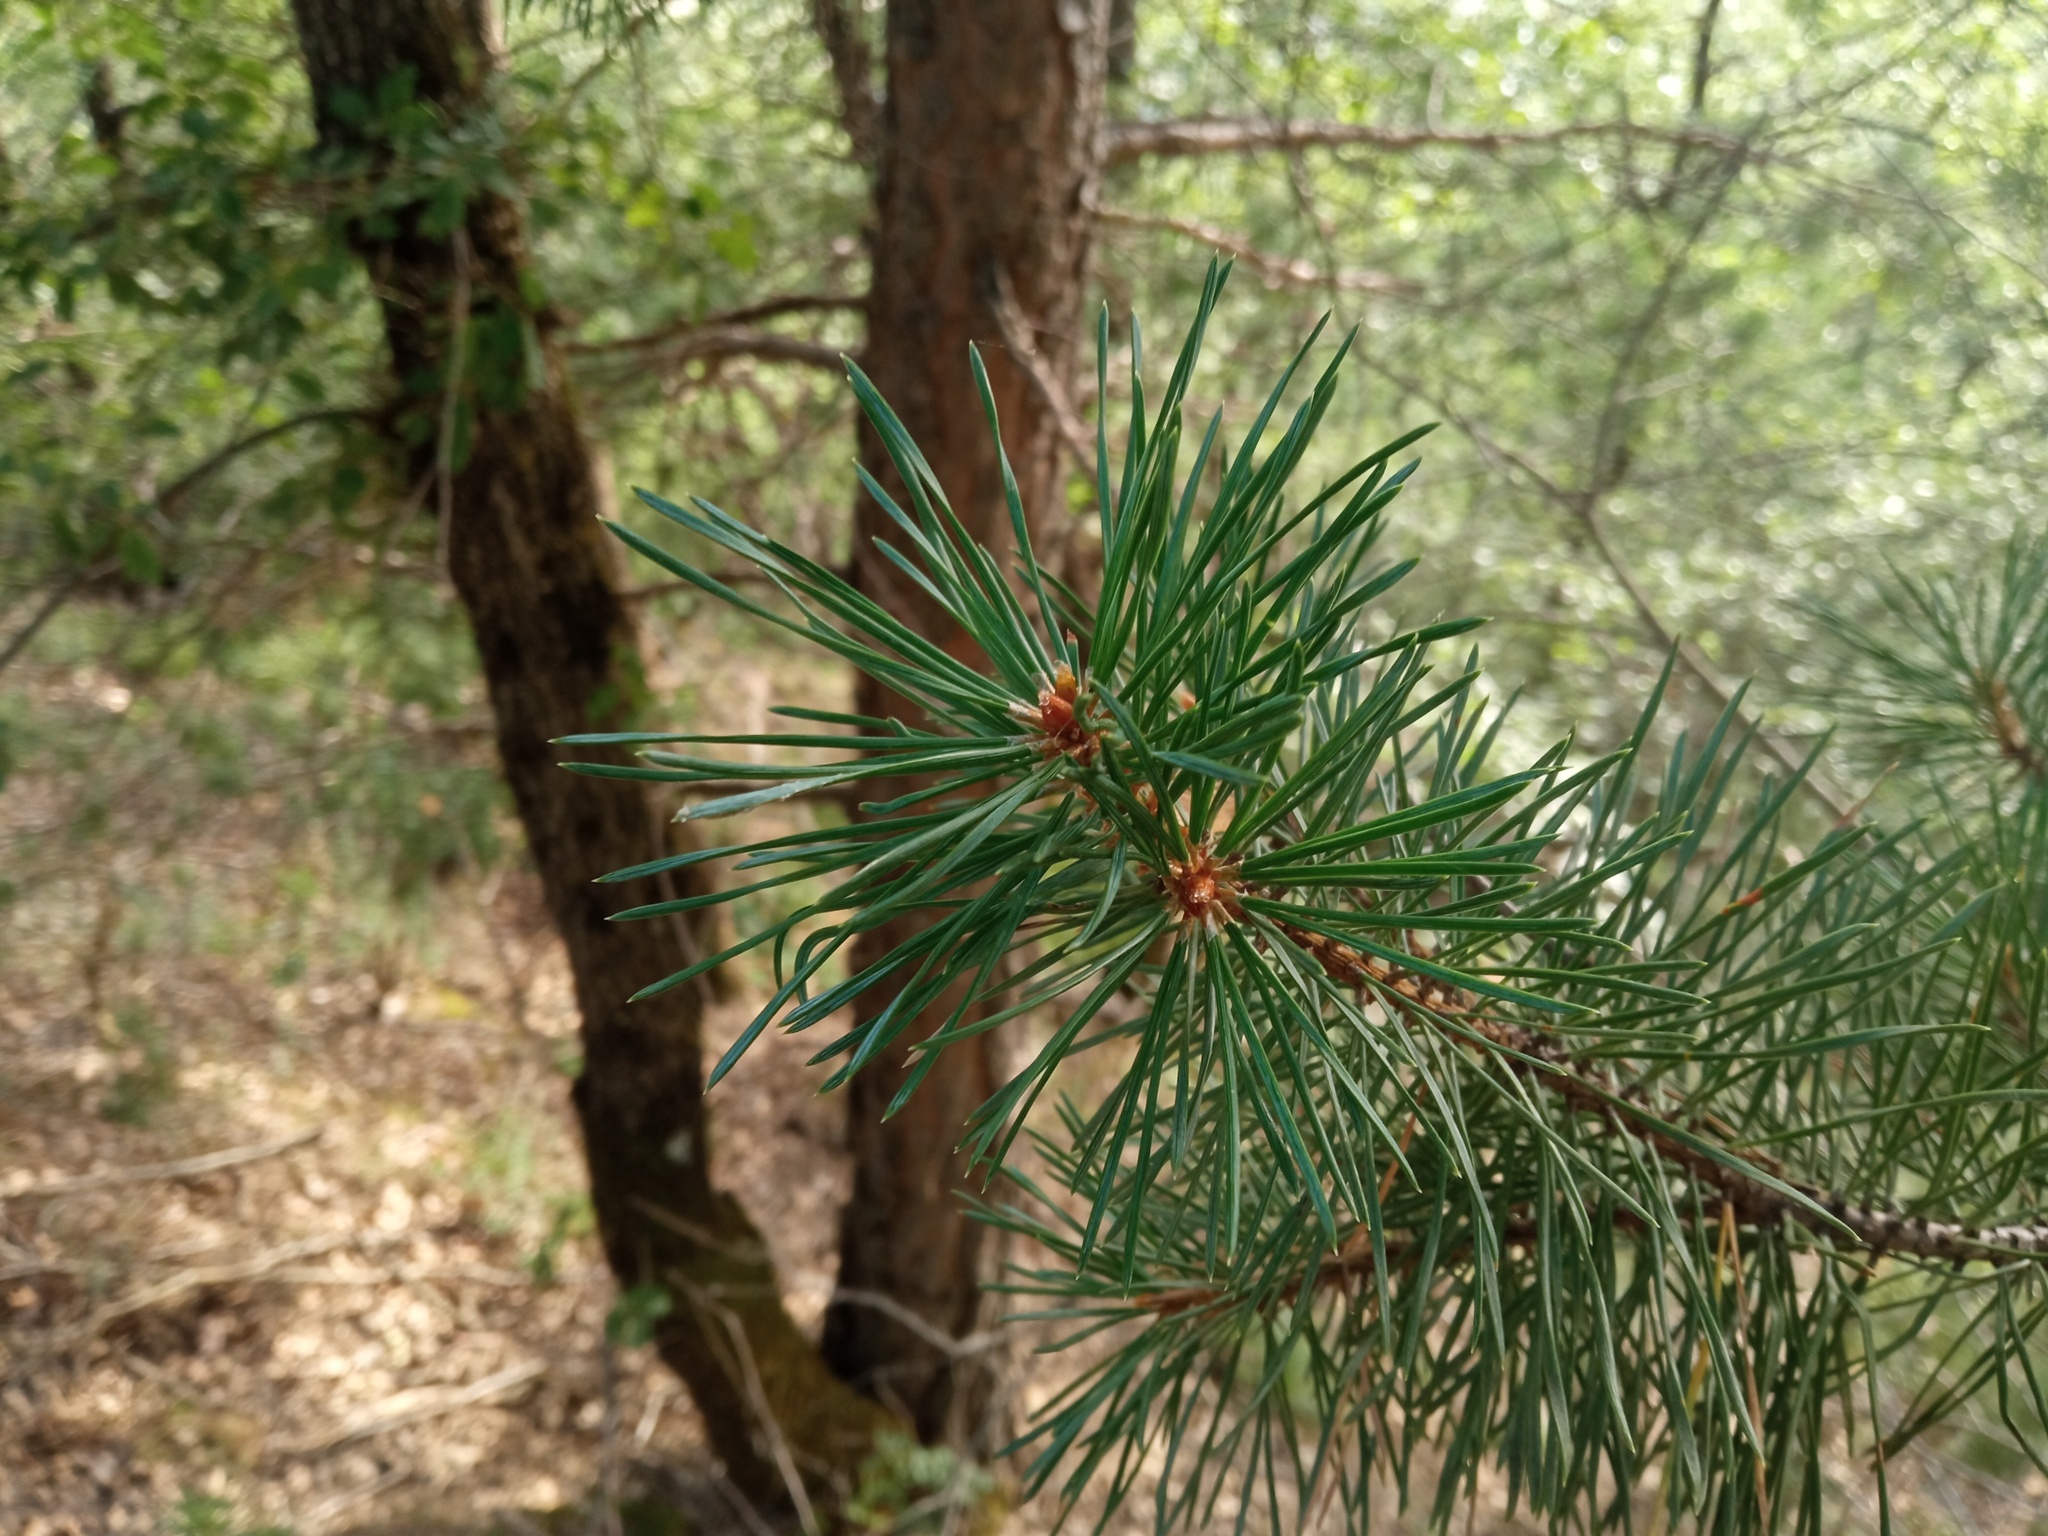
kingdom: Plantae
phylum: Tracheophyta
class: Pinopsida
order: Pinales
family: Pinaceae
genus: Pinus
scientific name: Pinus sylvestris
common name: Scots pine
